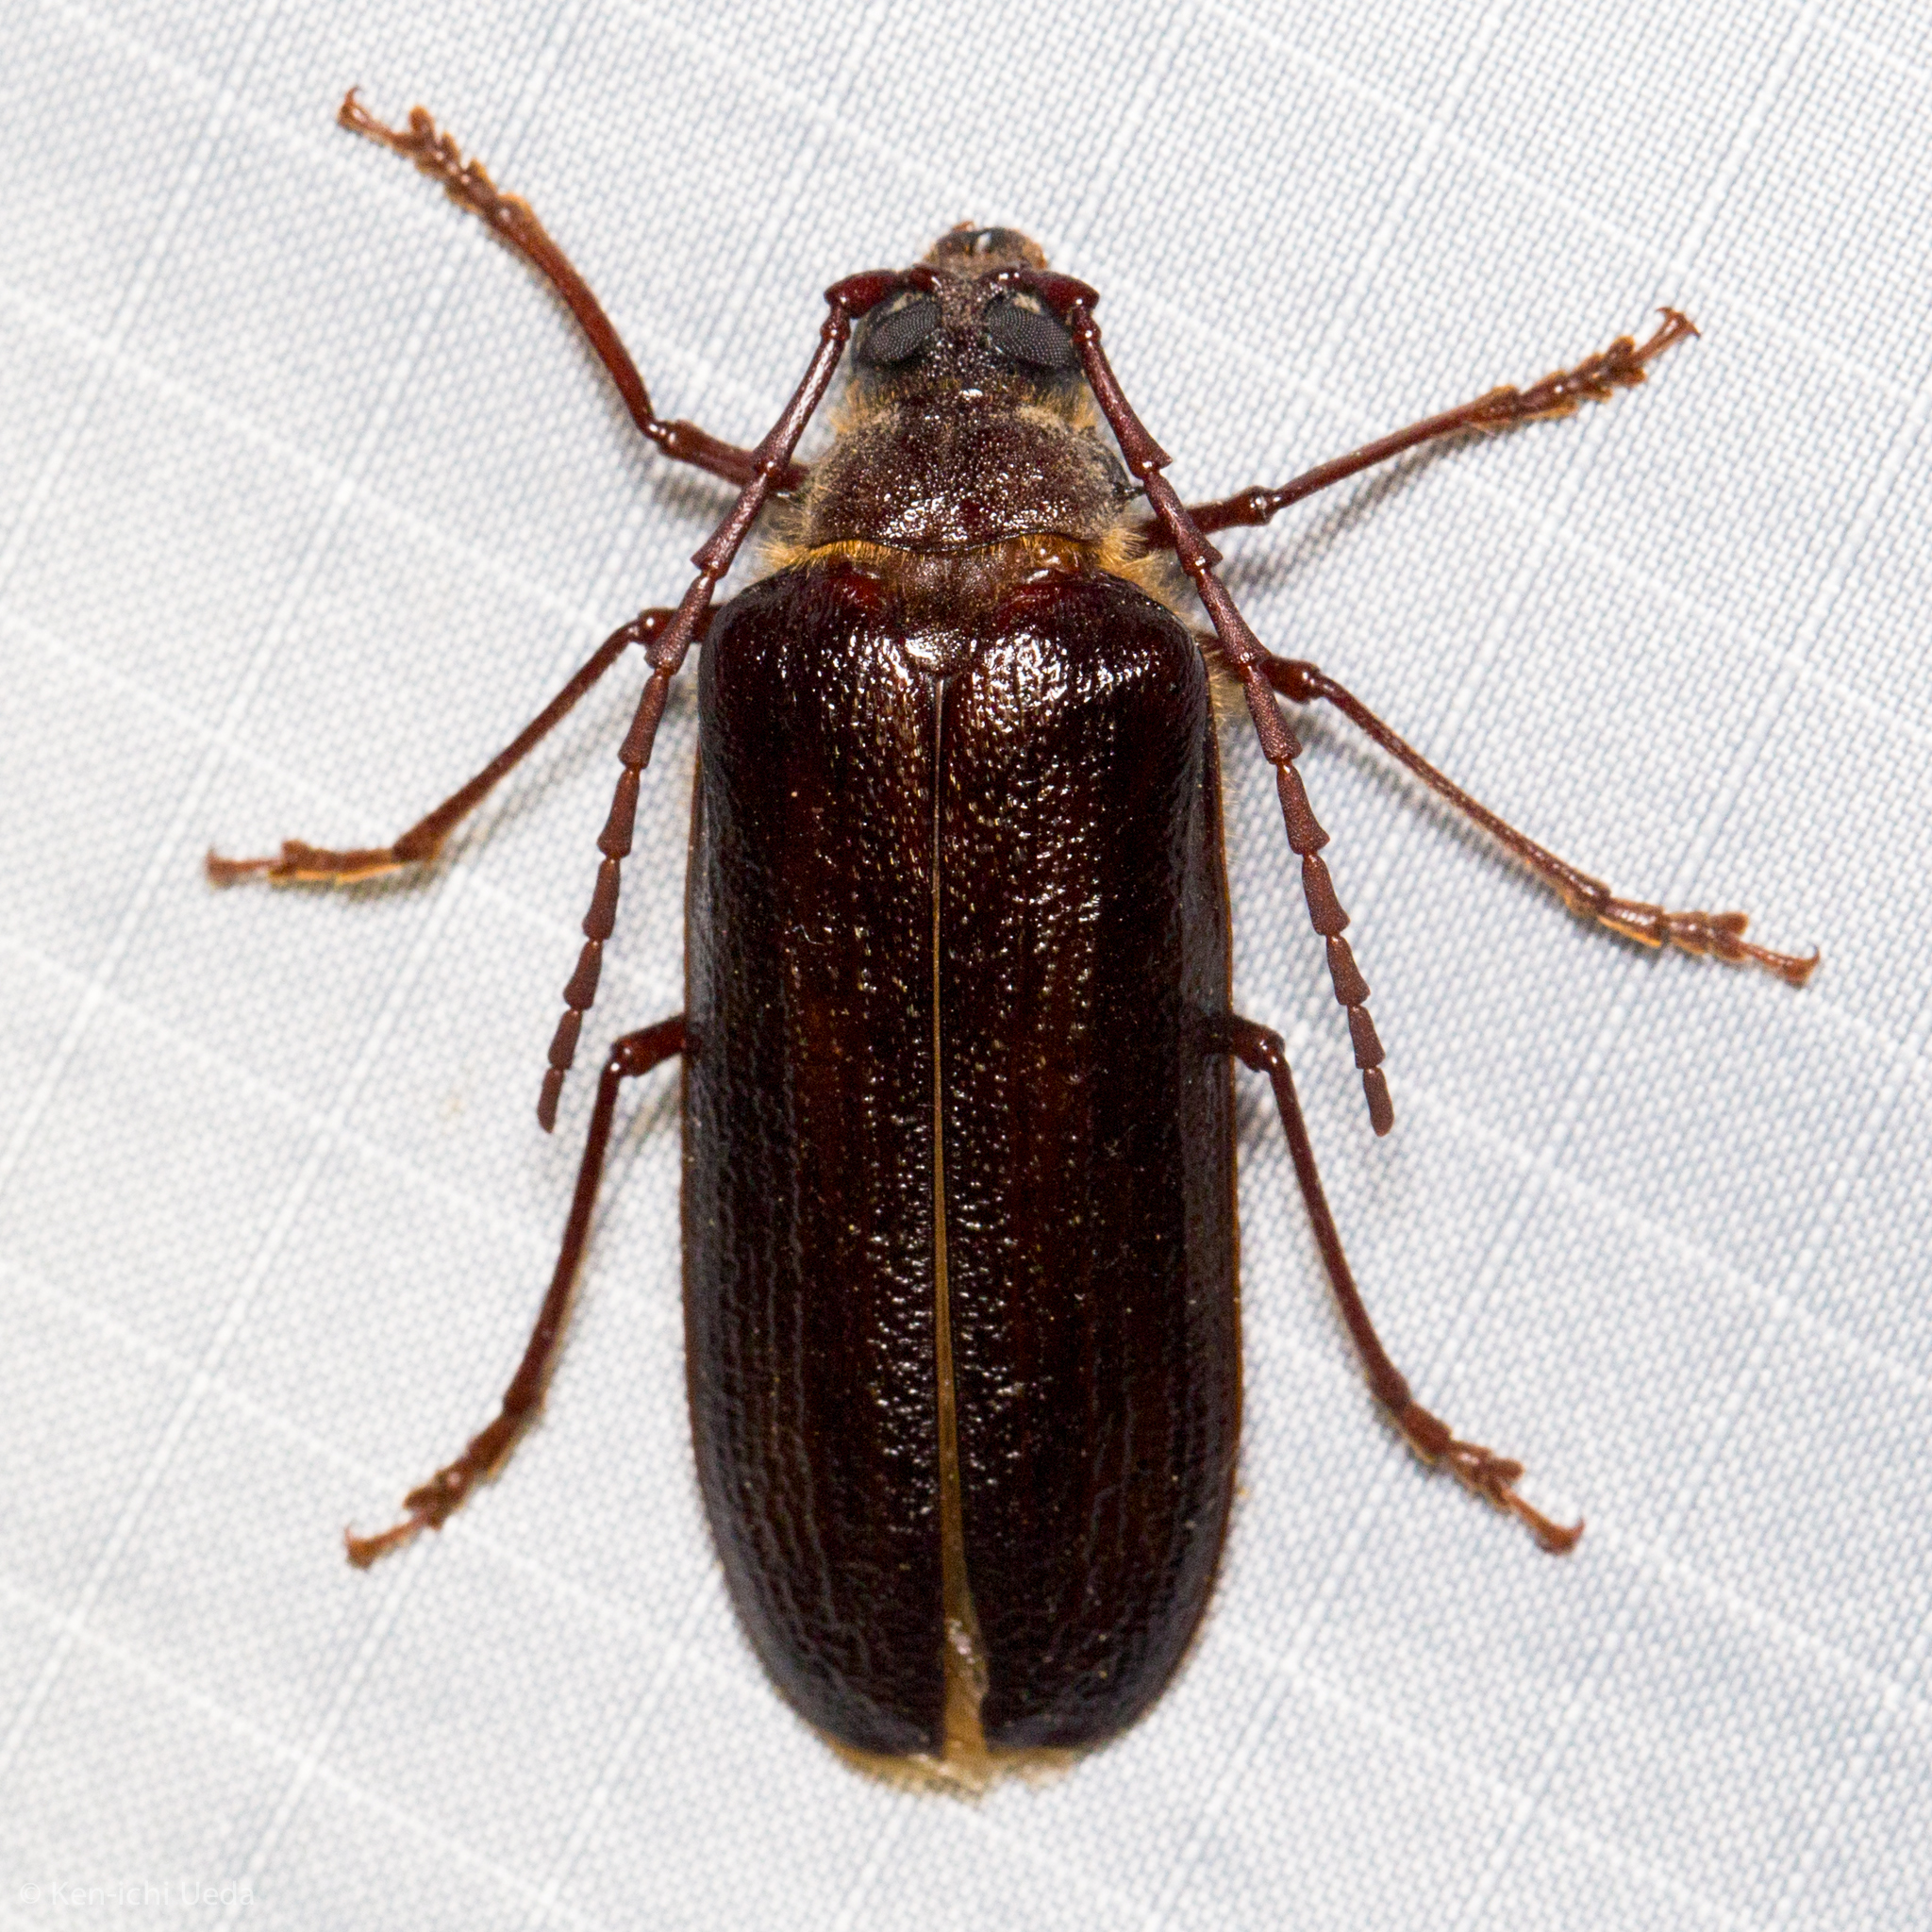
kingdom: Animalia
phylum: Arthropoda
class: Insecta
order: Coleoptera
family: Cerambycidae
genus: Tragosoma
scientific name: Tragosoma harrisii
